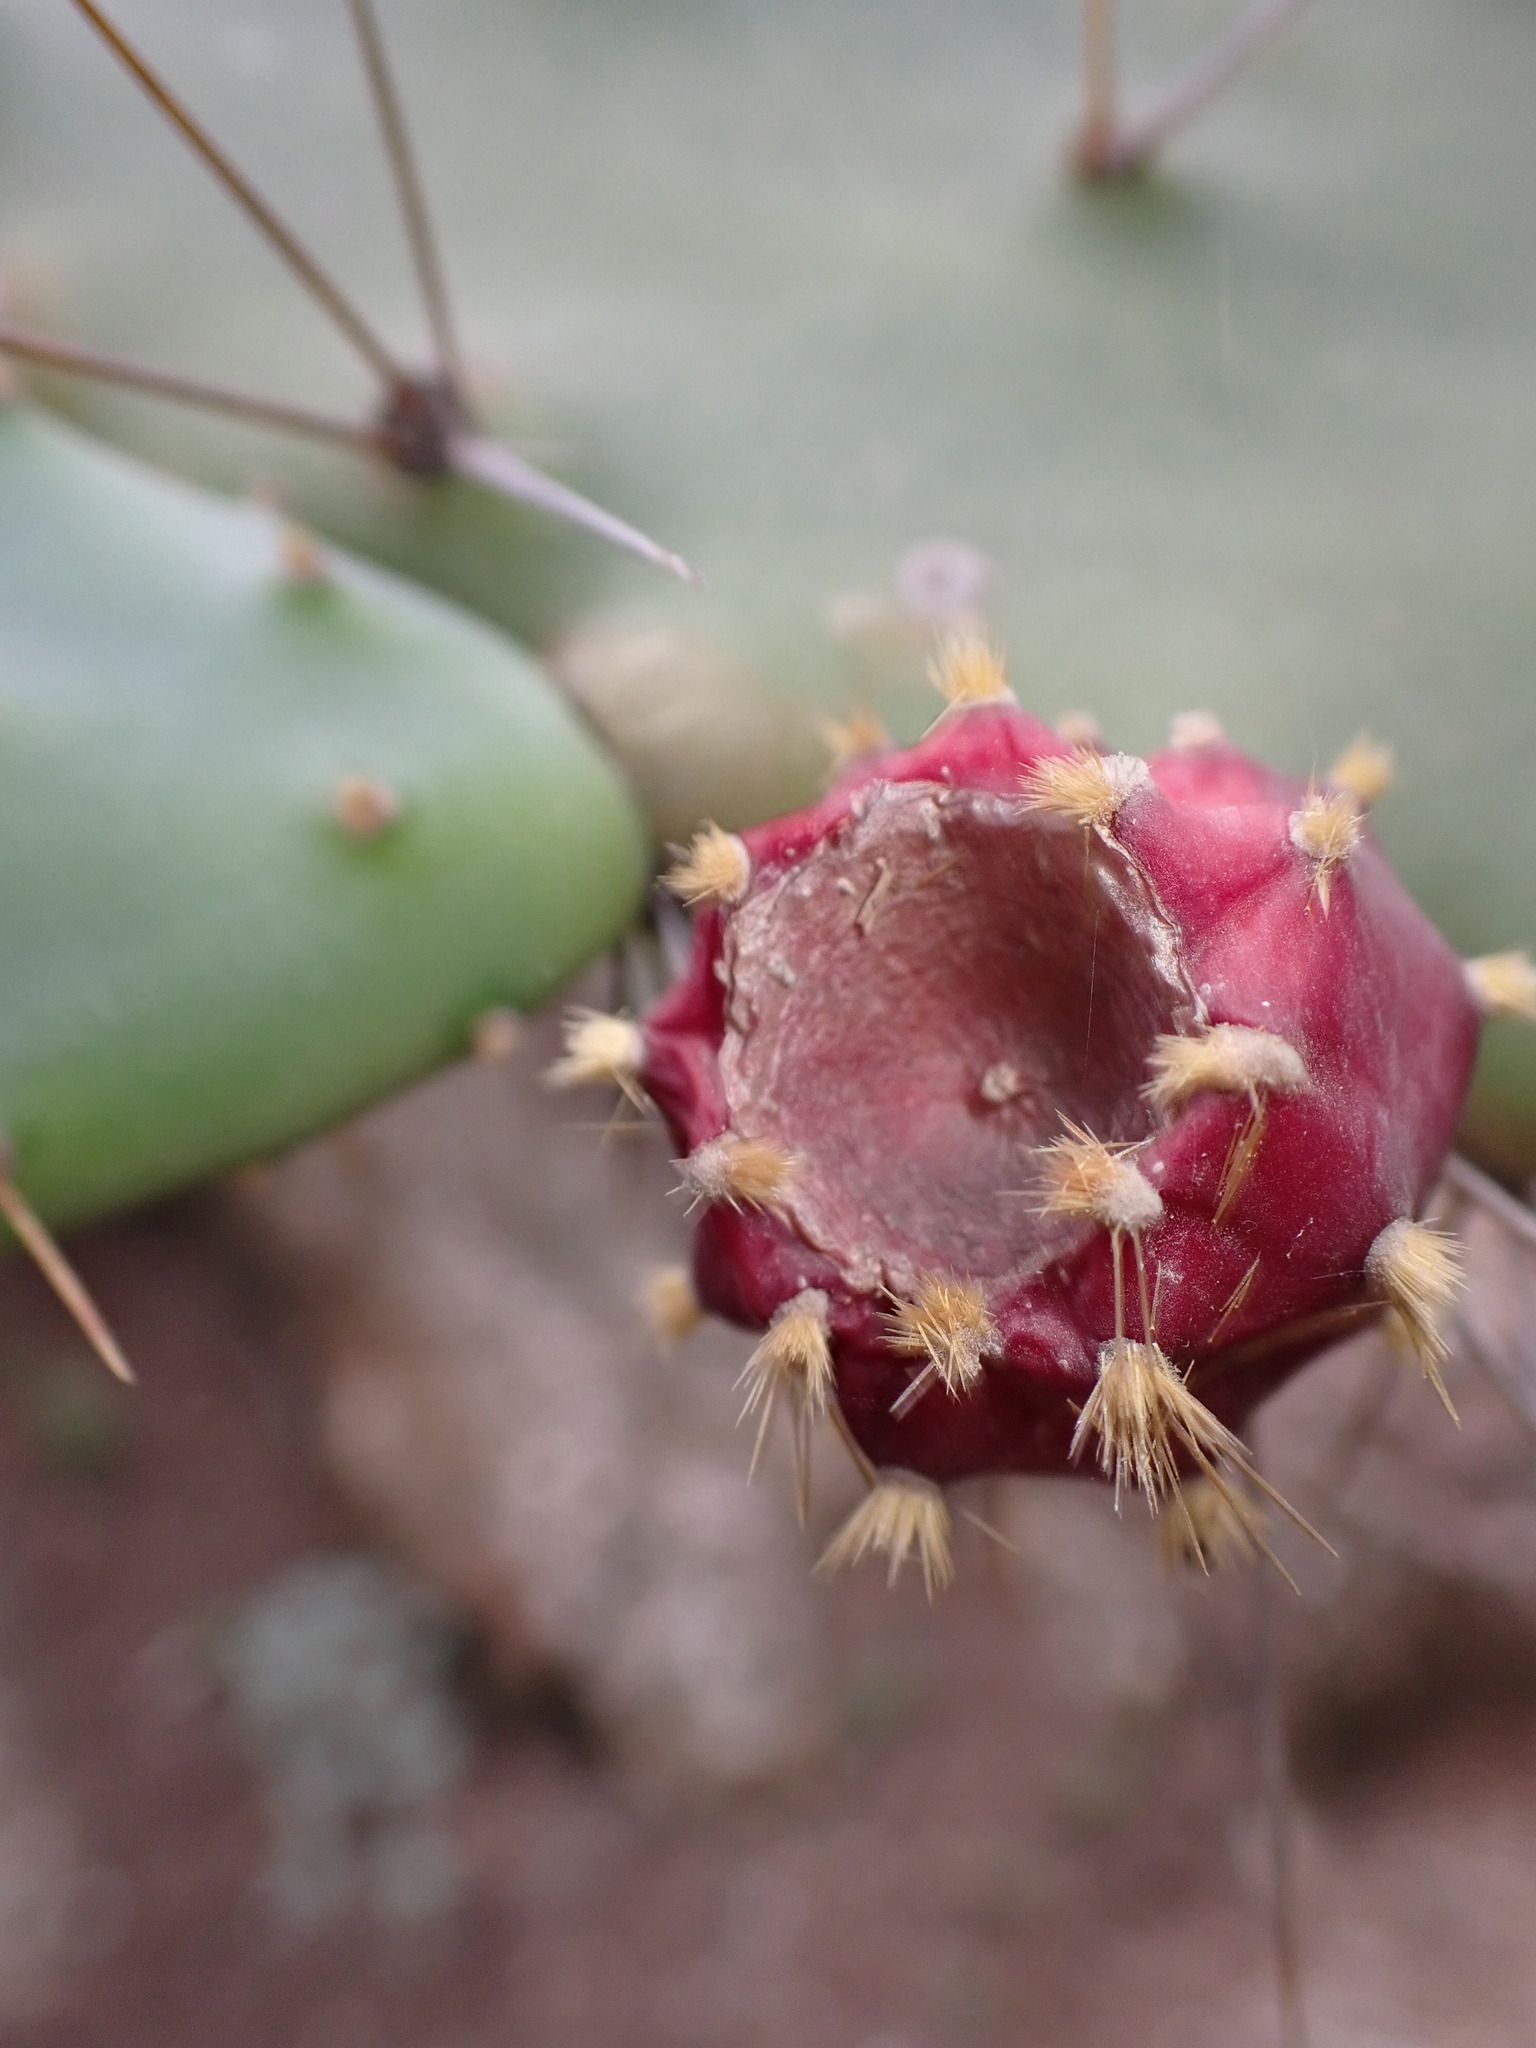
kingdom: Plantae
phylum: Tracheophyta
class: Magnoliopsida
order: Caryophyllales
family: Cactaceae
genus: Opuntia
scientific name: Opuntia elatior
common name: Tuna
